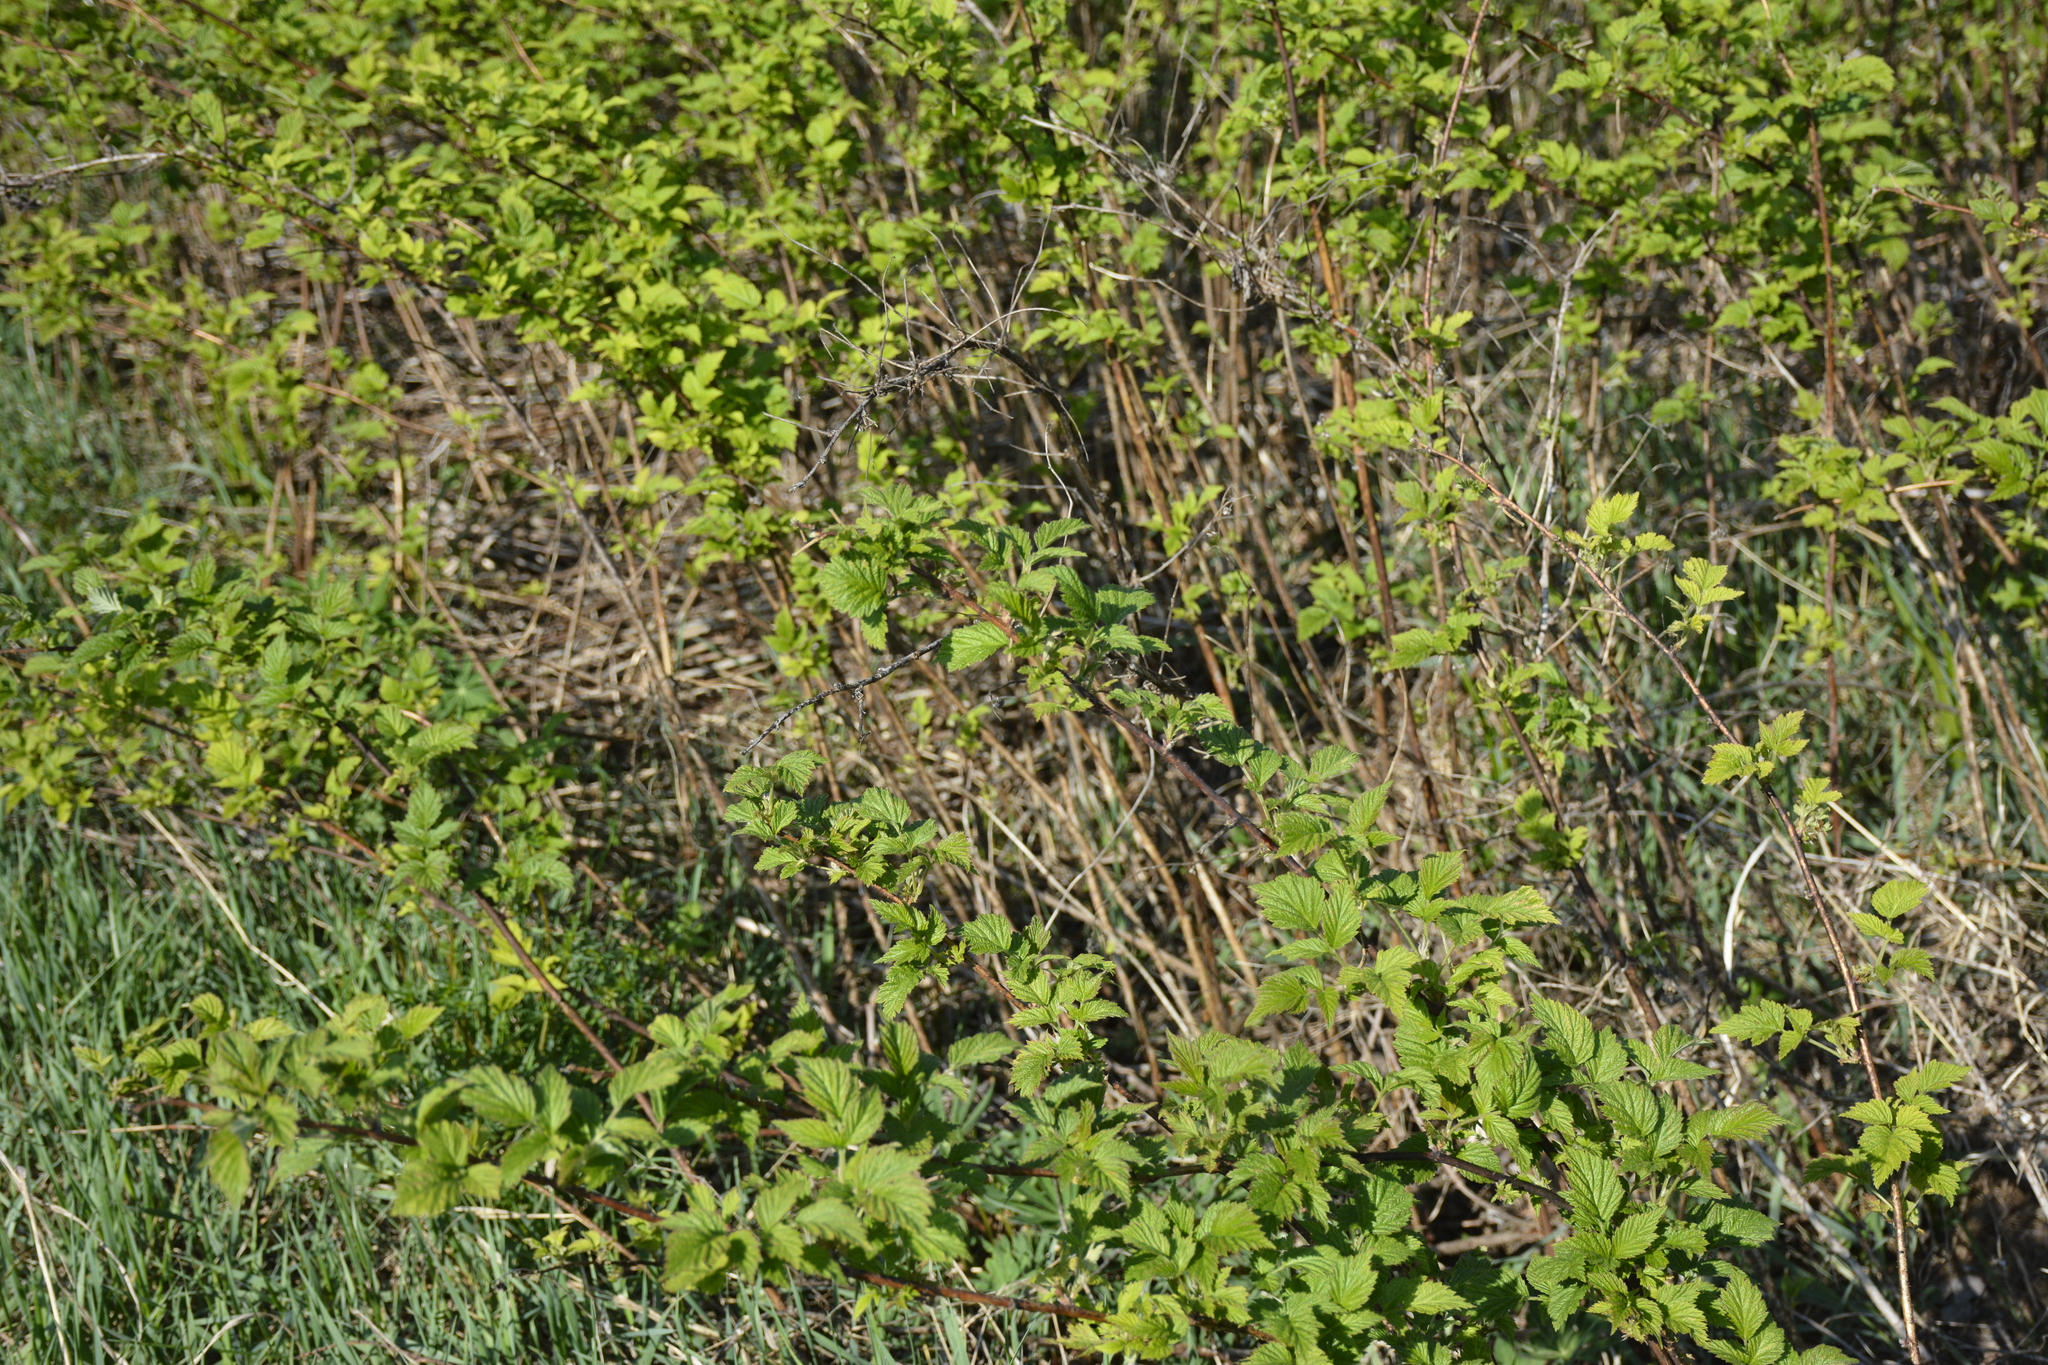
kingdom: Plantae
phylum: Tracheophyta
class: Magnoliopsida
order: Rosales
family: Rosaceae
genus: Rubus
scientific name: Rubus idaeus
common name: Raspberry
